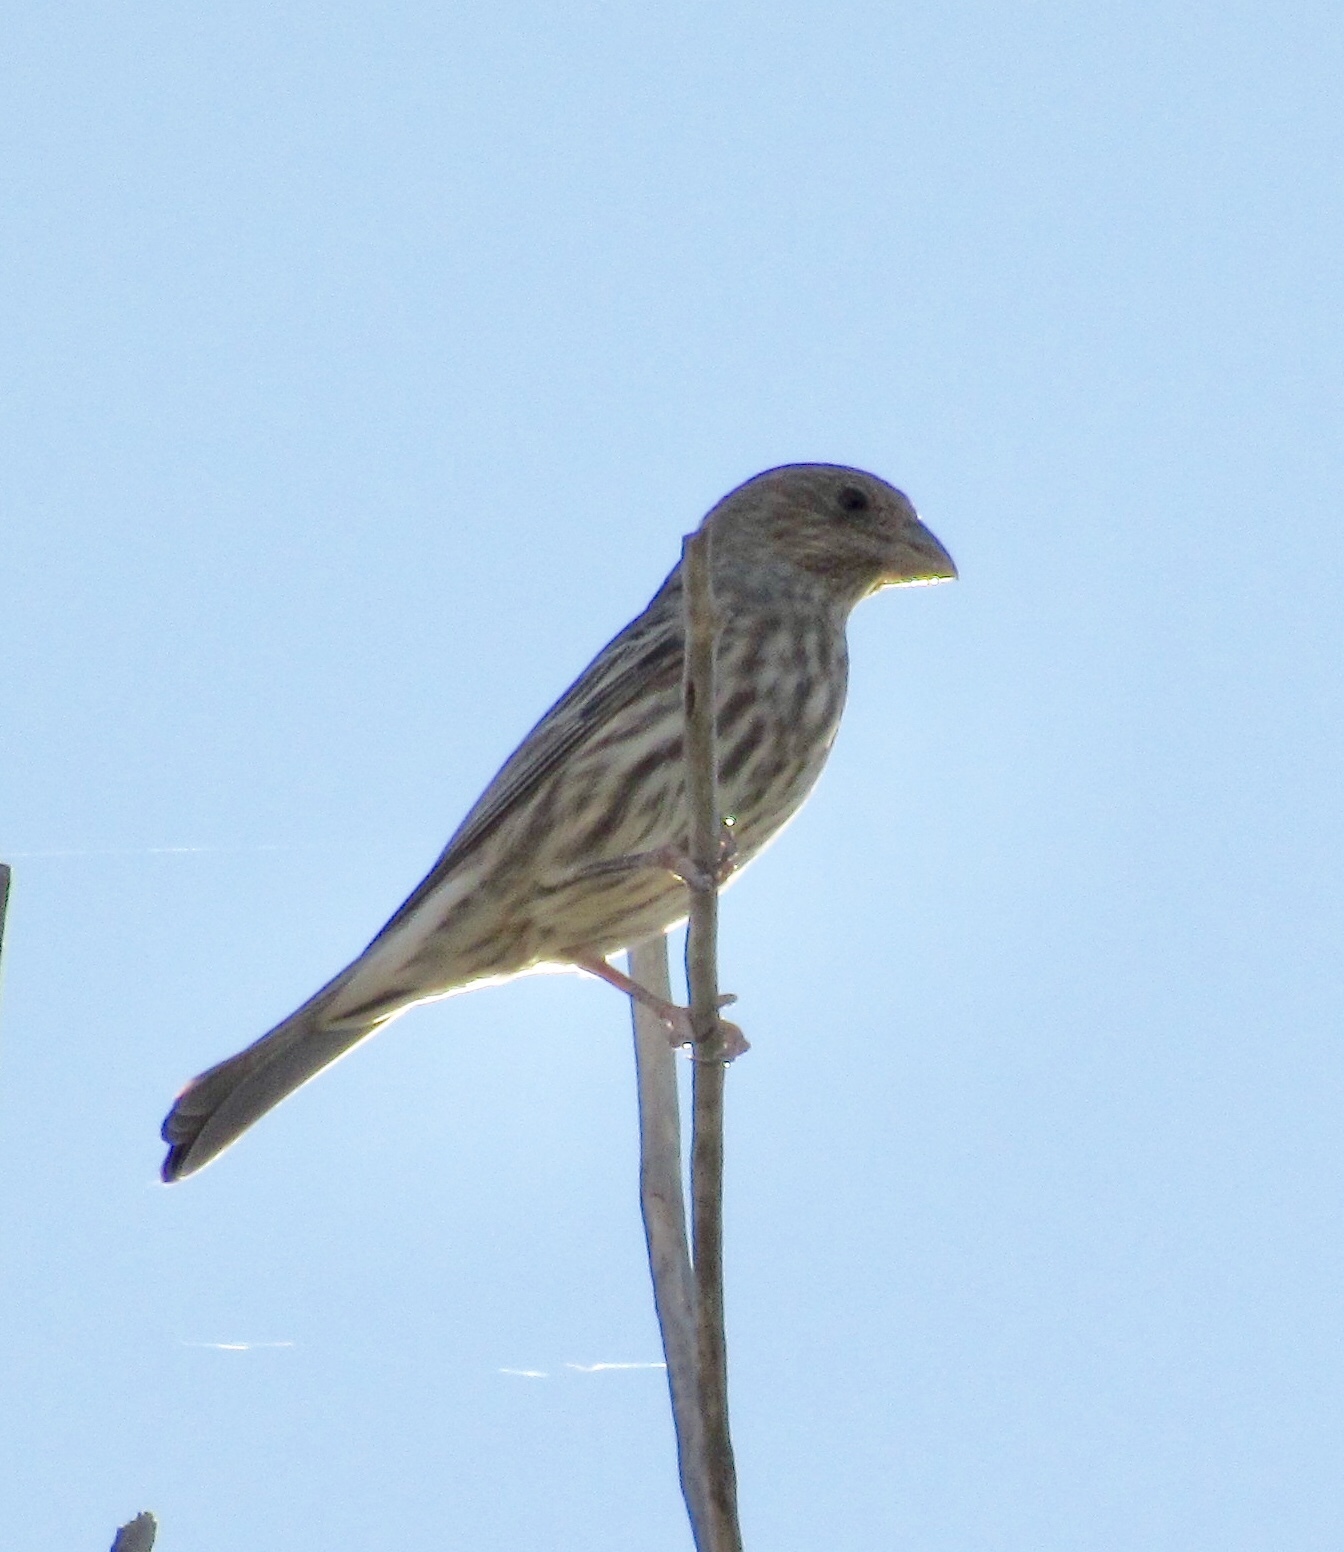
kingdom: Animalia
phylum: Chordata
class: Aves
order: Passeriformes
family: Fringillidae
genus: Haemorhous
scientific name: Haemorhous mexicanus
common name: House finch
